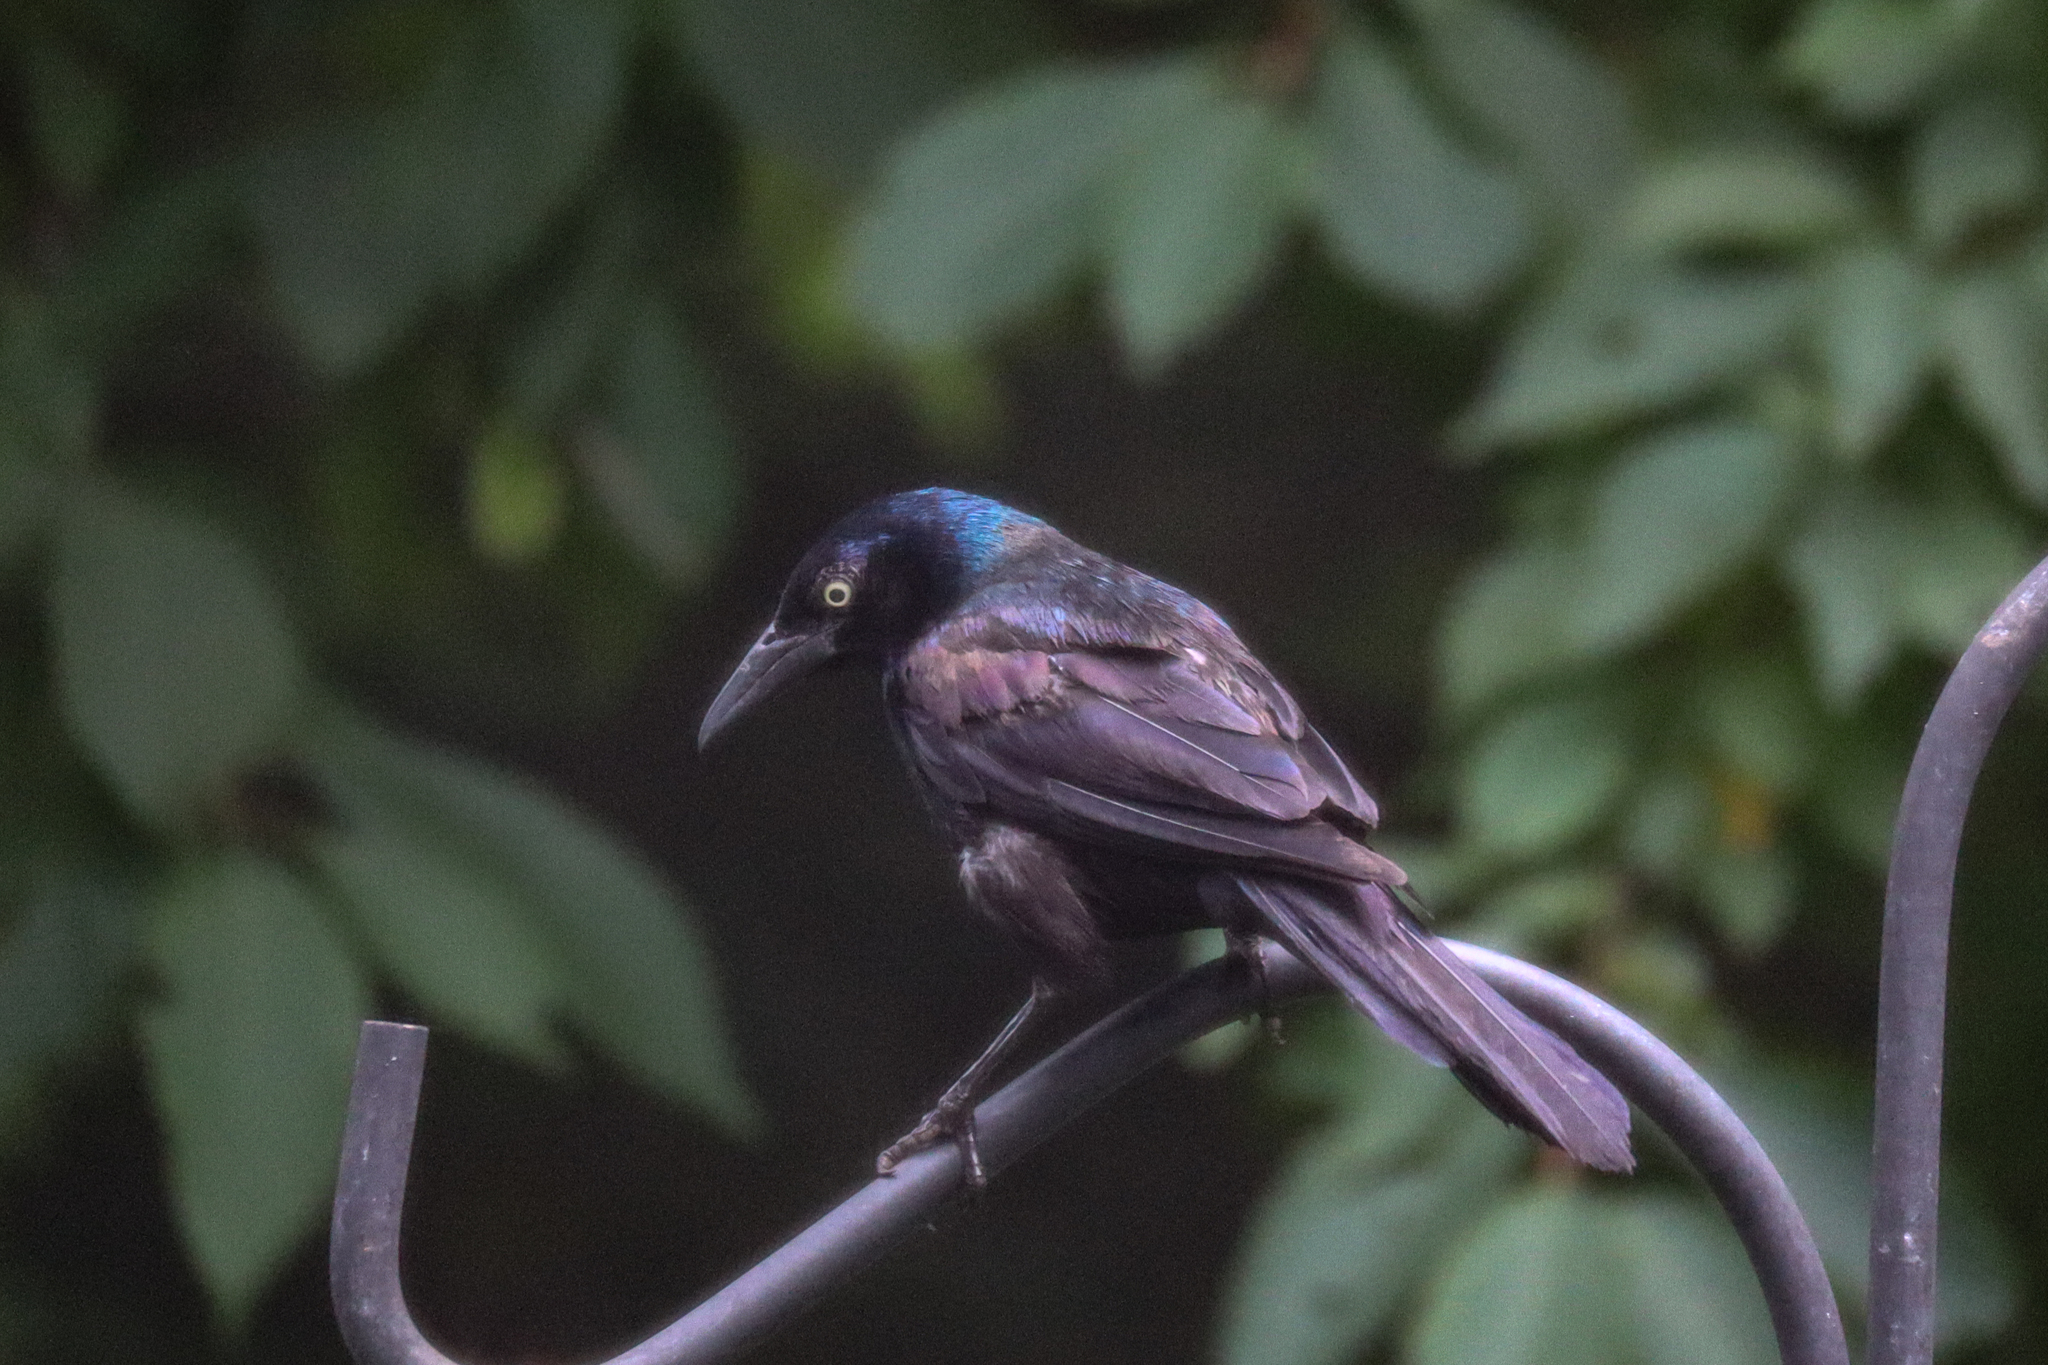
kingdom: Animalia
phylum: Chordata
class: Aves
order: Passeriformes
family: Icteridae
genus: Quiscalus
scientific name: Quiscalus quiscula
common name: Common grackle
